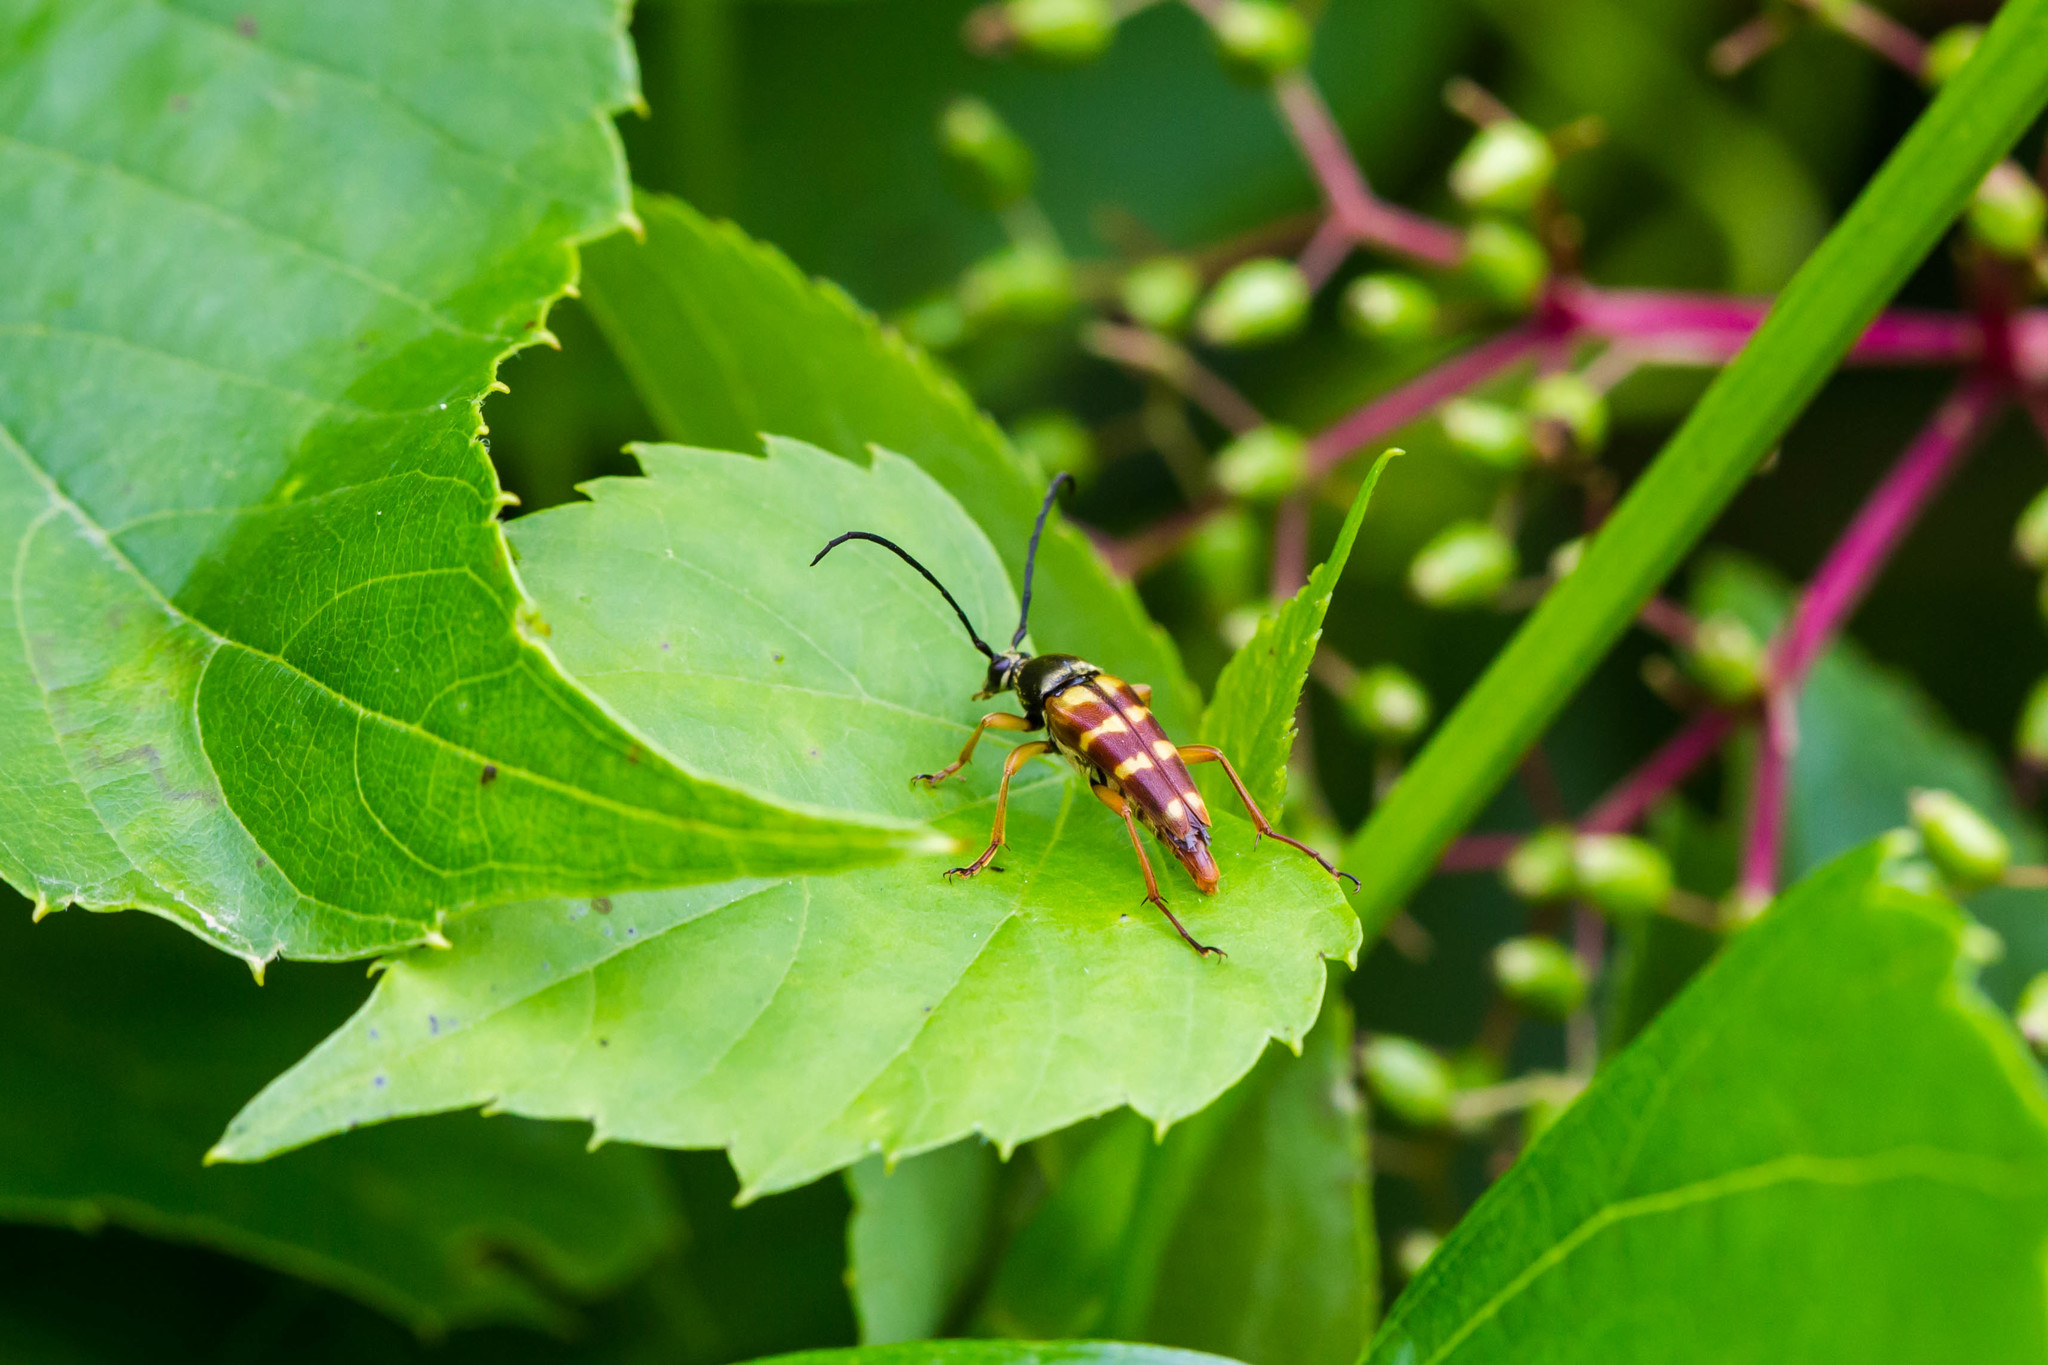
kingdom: Animalia
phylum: Arthropoda
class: Insecta
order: Coleoptera
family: Cerambycidae
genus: Typocerus
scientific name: Typocerus velutinus
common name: Banded longhorn beetle
